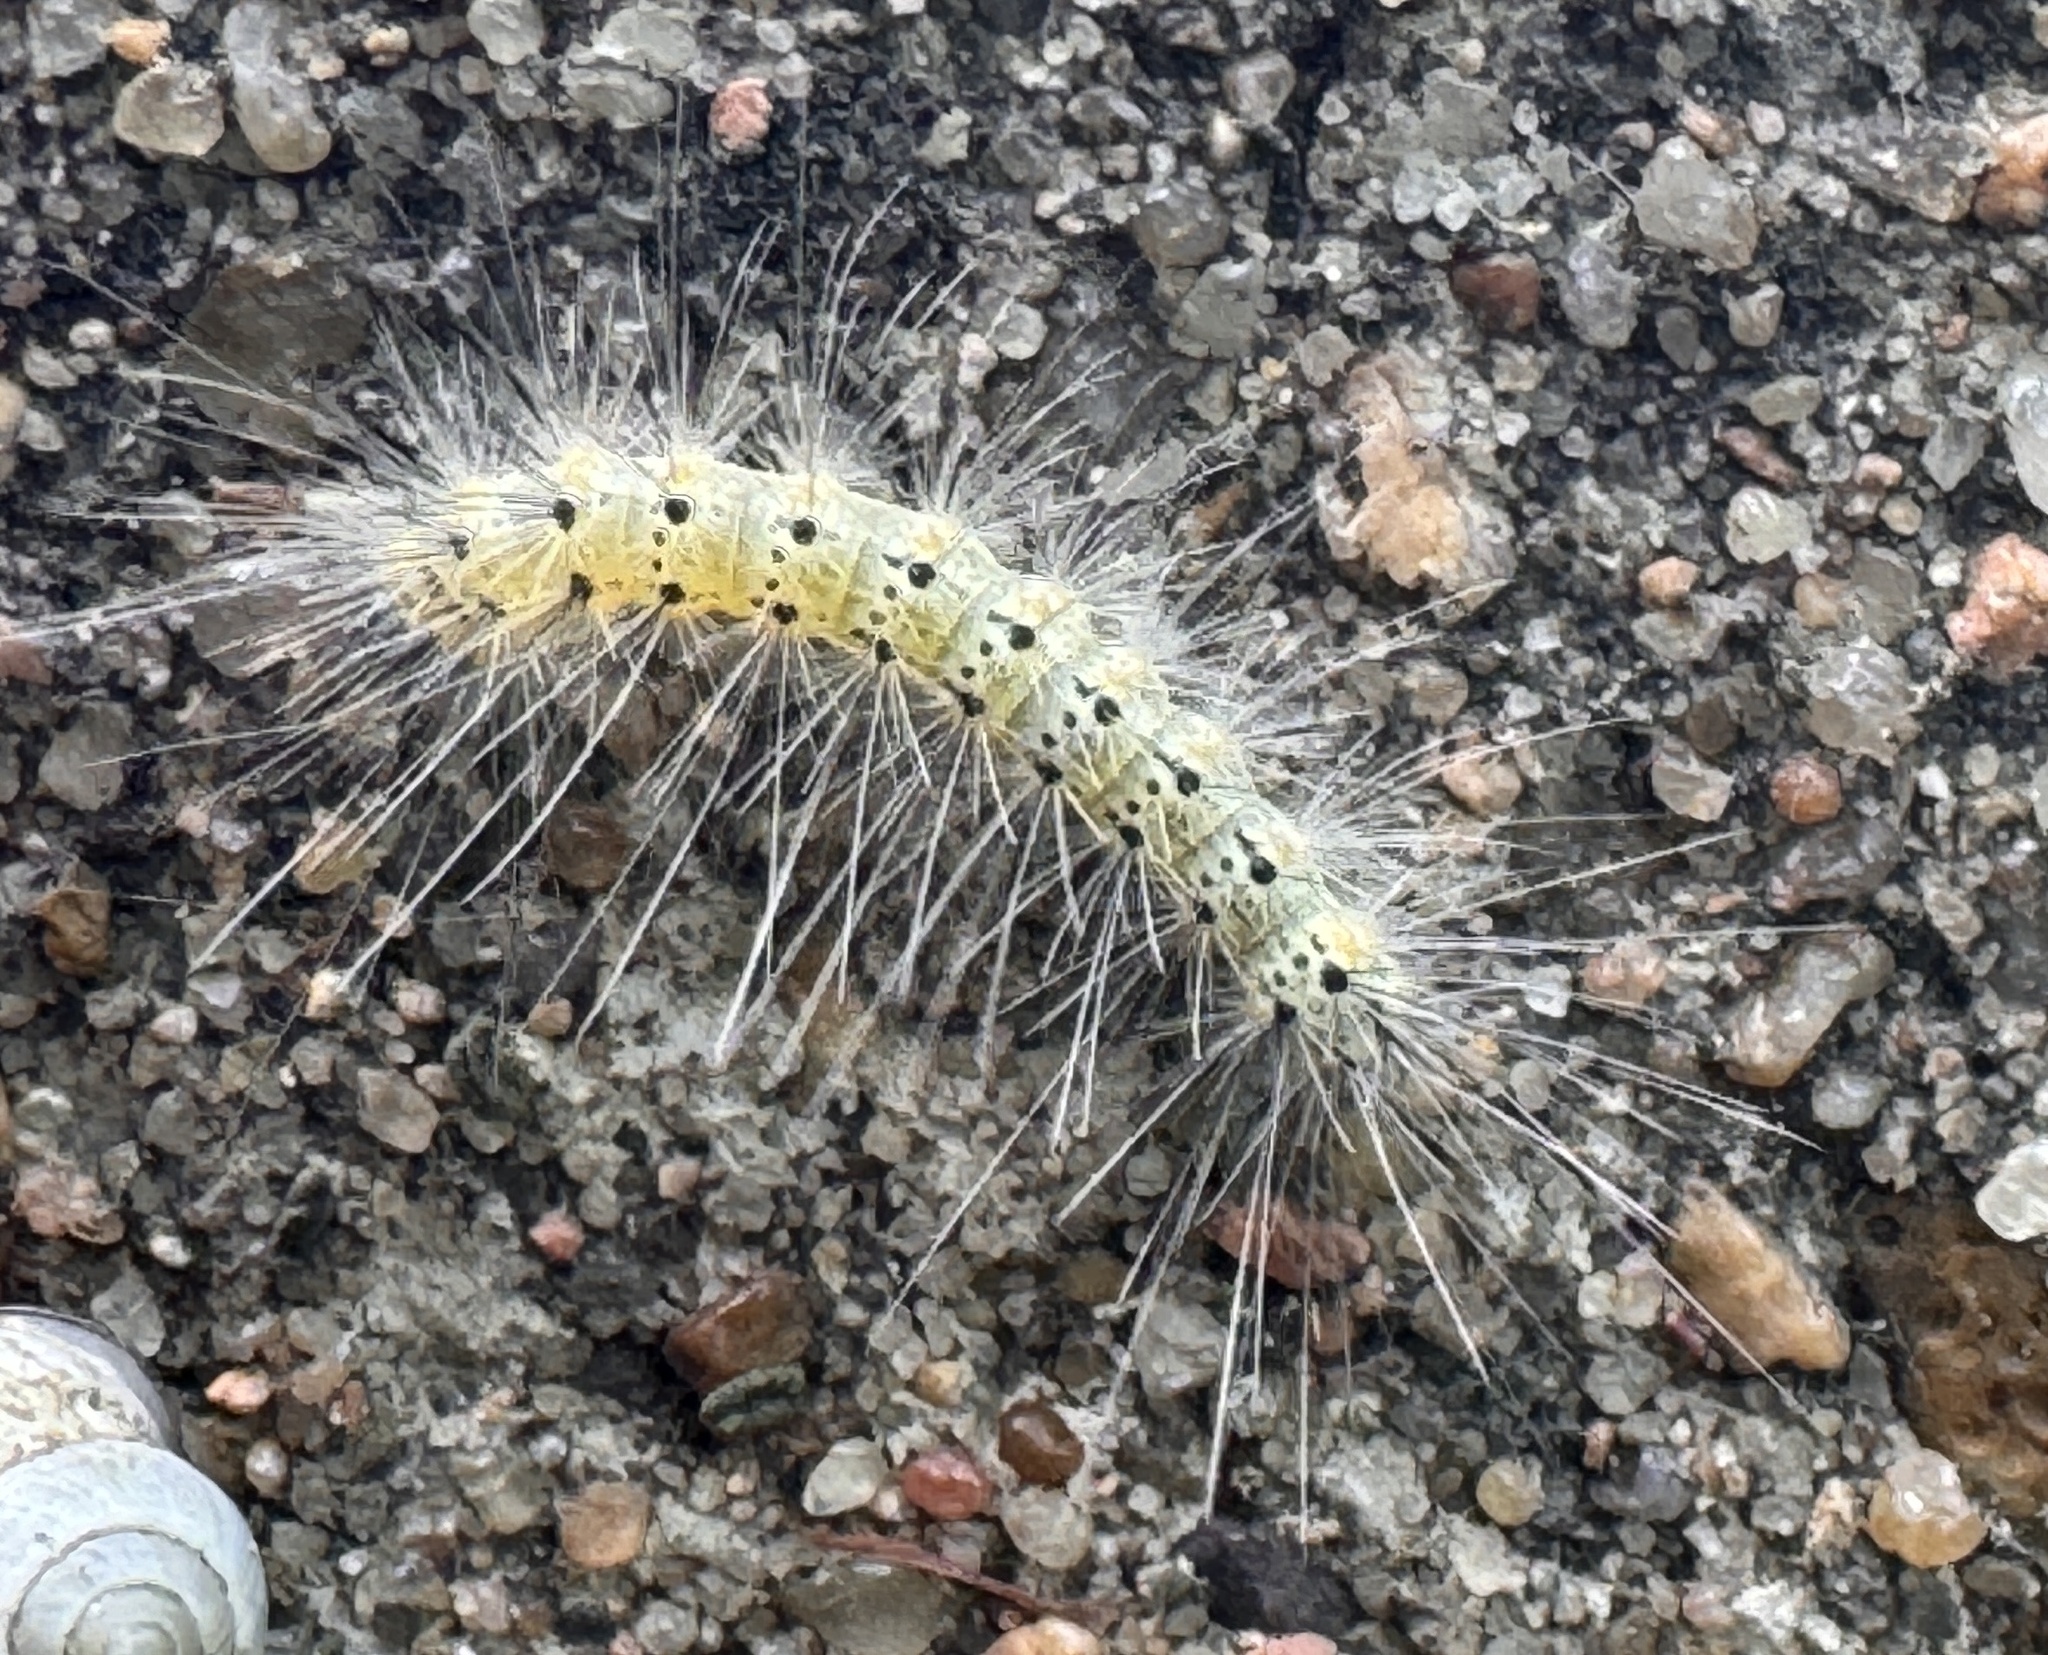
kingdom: Animalia
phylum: Arthropoda
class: Insecta
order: Lepidoptera
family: Erebidae
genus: Hyphantria
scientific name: Hyphantria cunea
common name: American white moth
